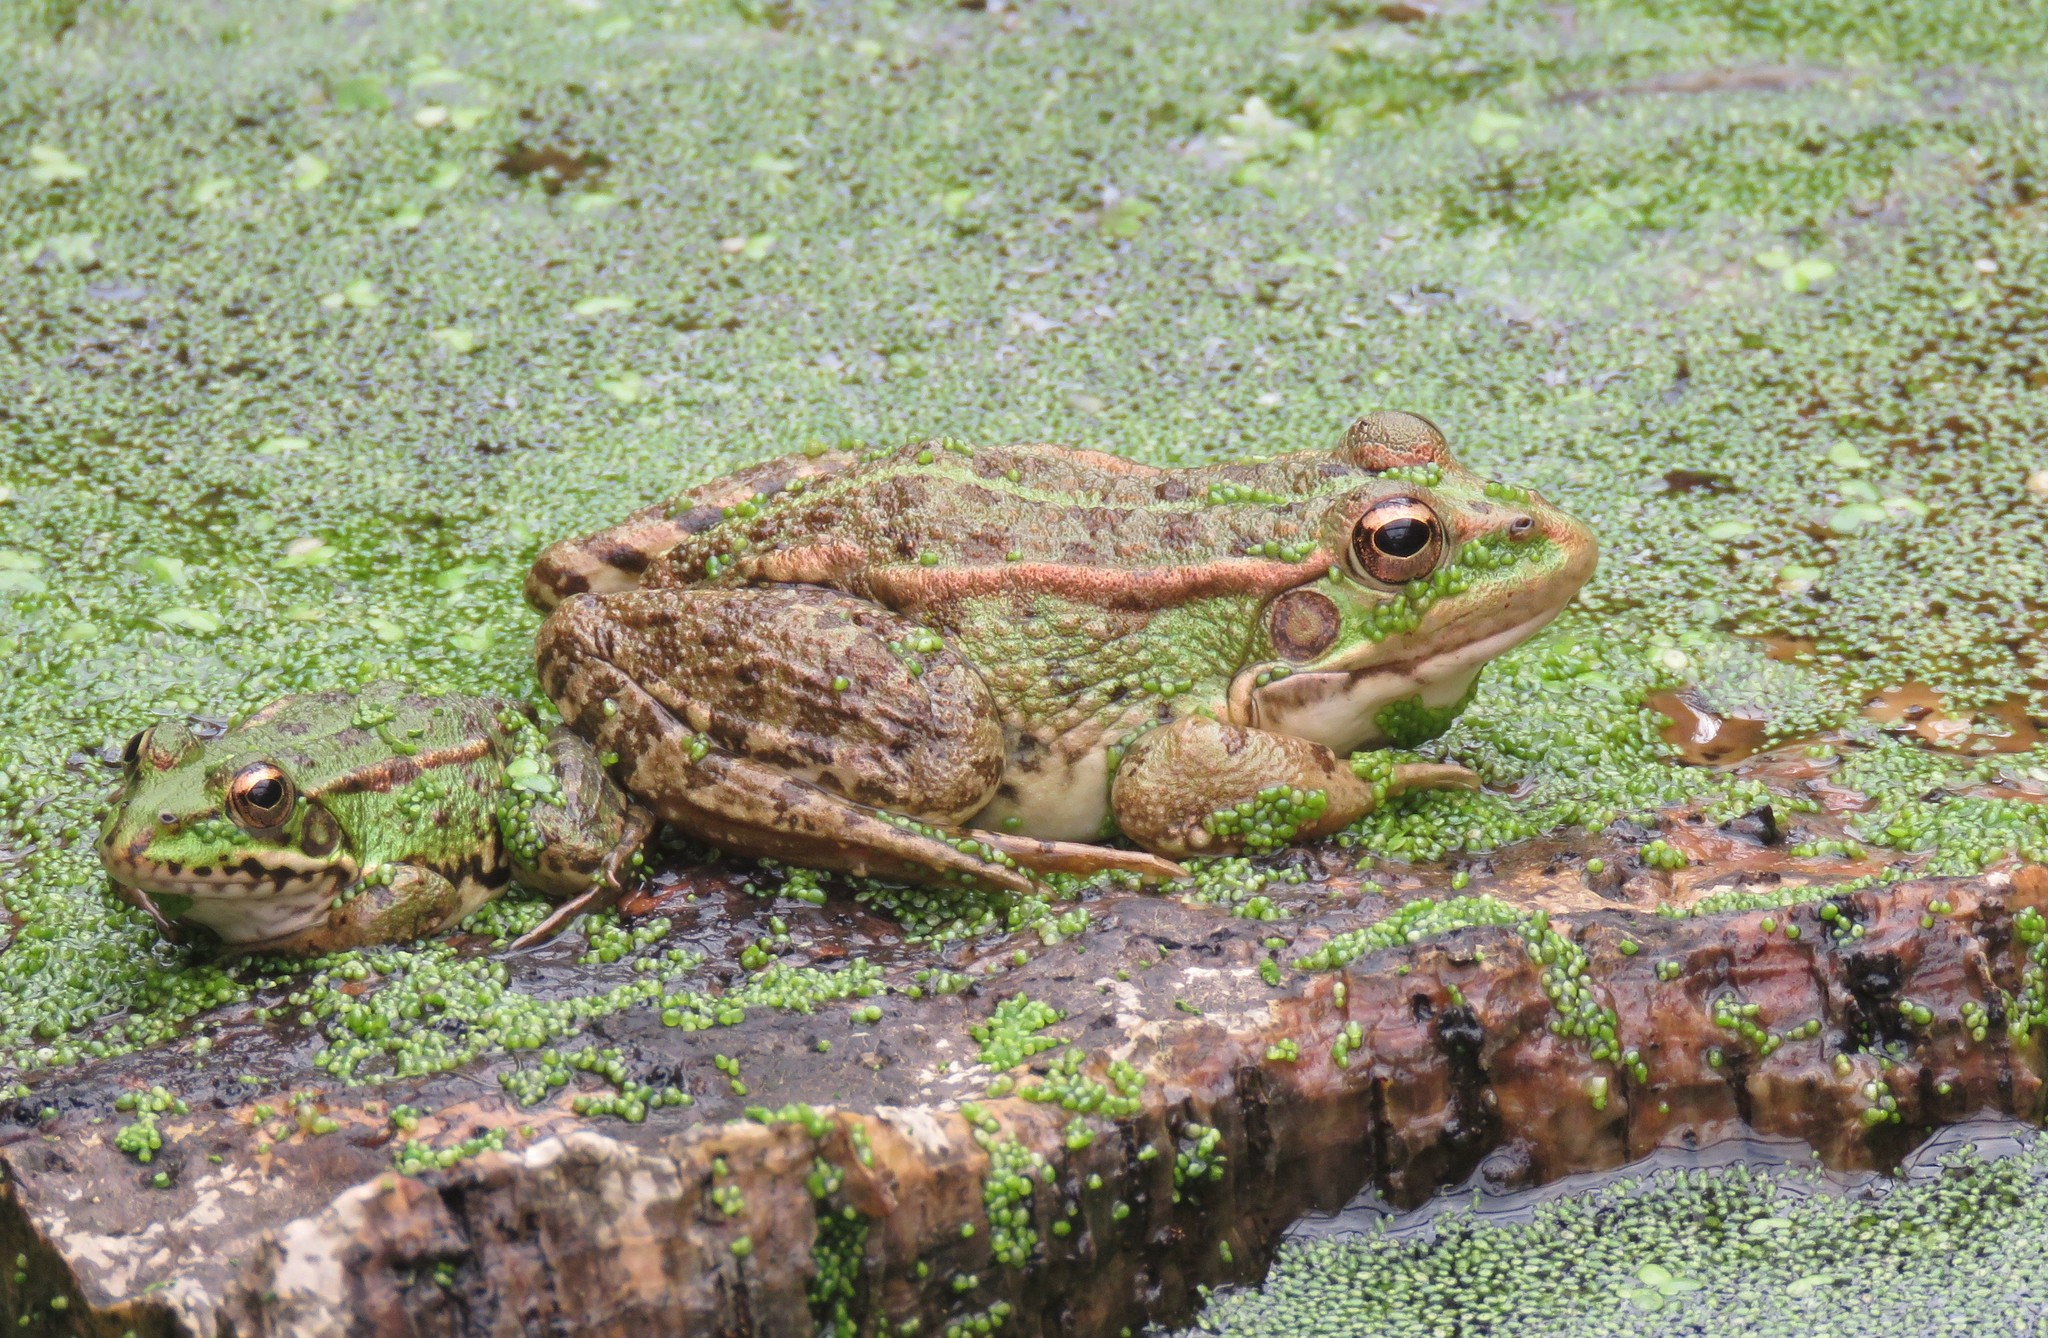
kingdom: Animalia
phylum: Chordata
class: Amphibia
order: Anura
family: Ranidae
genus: Pelophylax
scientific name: Pelophylax perezi
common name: Perez's frog
